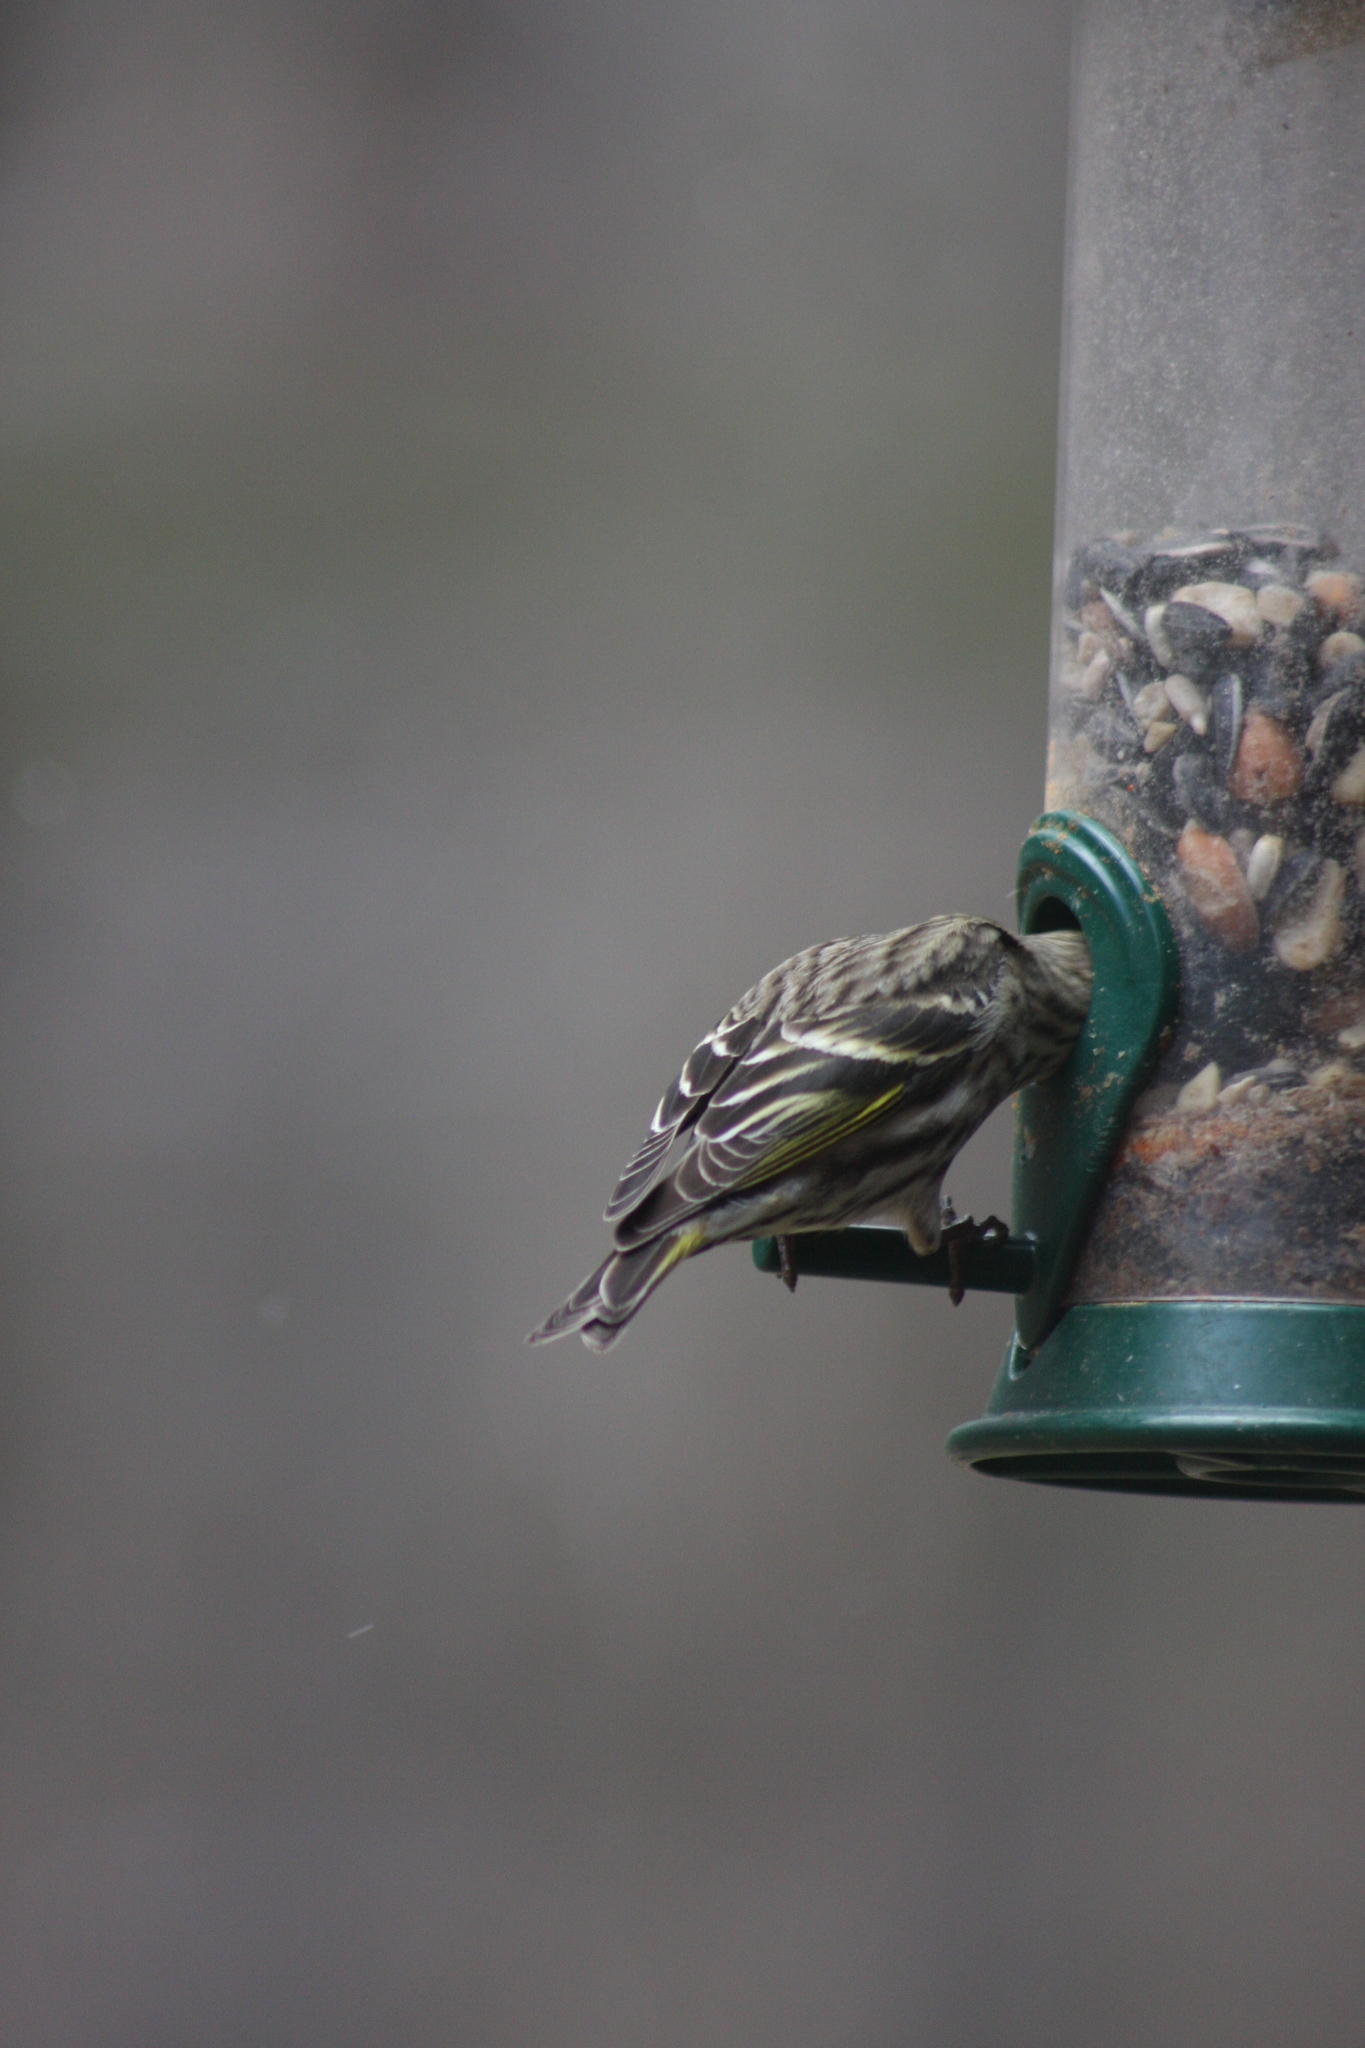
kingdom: Animalia
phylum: Chordata
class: Aves
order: Passeriformes
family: Fringillidae
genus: Spinus
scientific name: Spinus pinus
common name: Pine siskin
